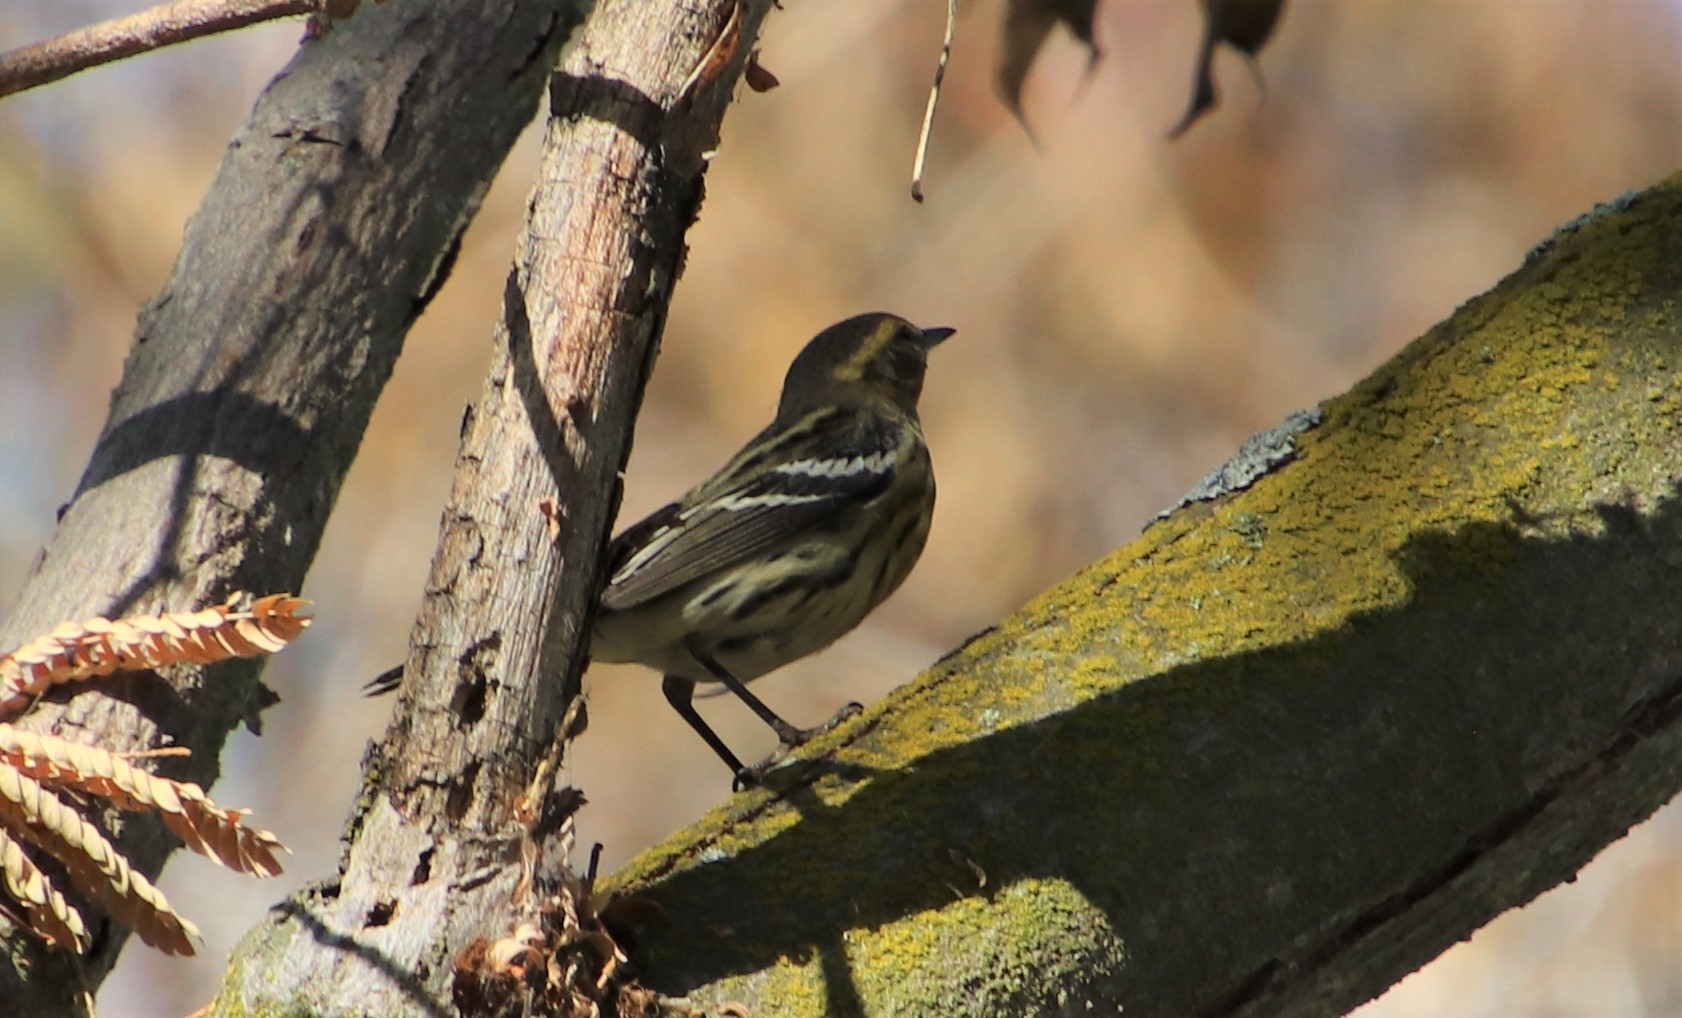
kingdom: Animalia
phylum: Chordata
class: Aves
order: Passeriformes
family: Parulidae
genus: Setophaga
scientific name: Setophaga fusca
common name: Blackburnian warbler
